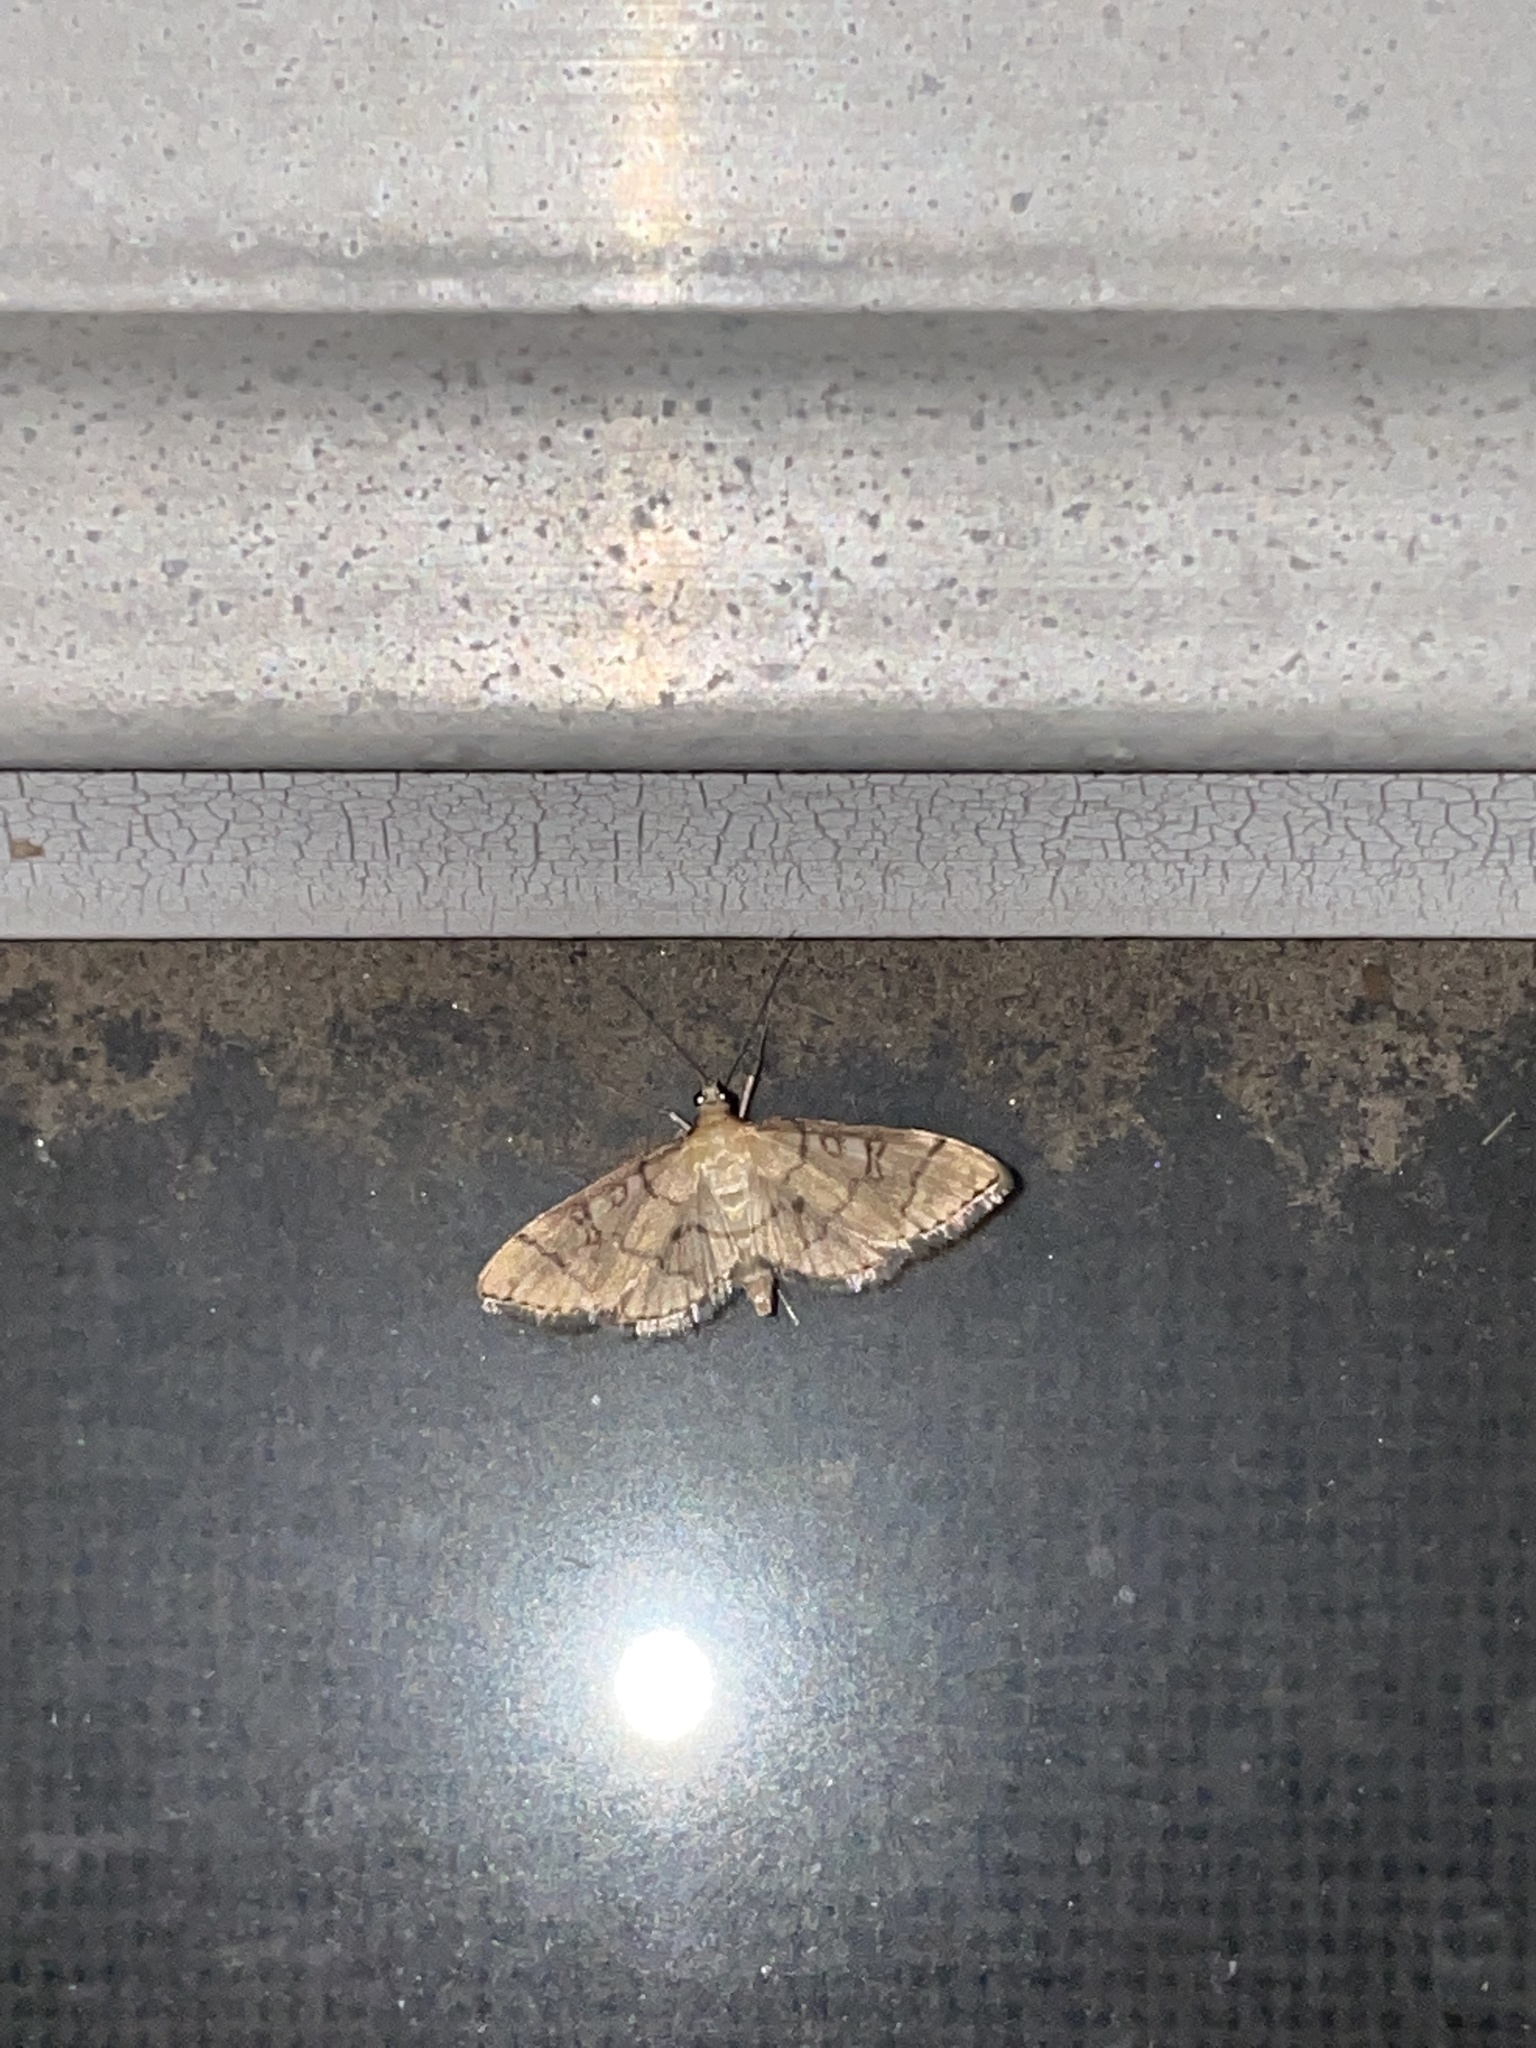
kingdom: Animalia
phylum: Arthropoda
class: Insecta
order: Lepidoptera
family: Crambidae
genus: Lamprosema
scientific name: Lamprosema Blepharomastix ranalis
